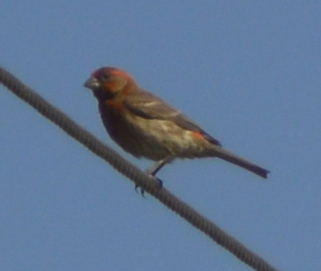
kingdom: Animalia
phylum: Chordata
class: Aves
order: Passeriformes
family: Fringillidae
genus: Haemorhous
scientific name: Haemorhous mexicanus
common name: House finch
